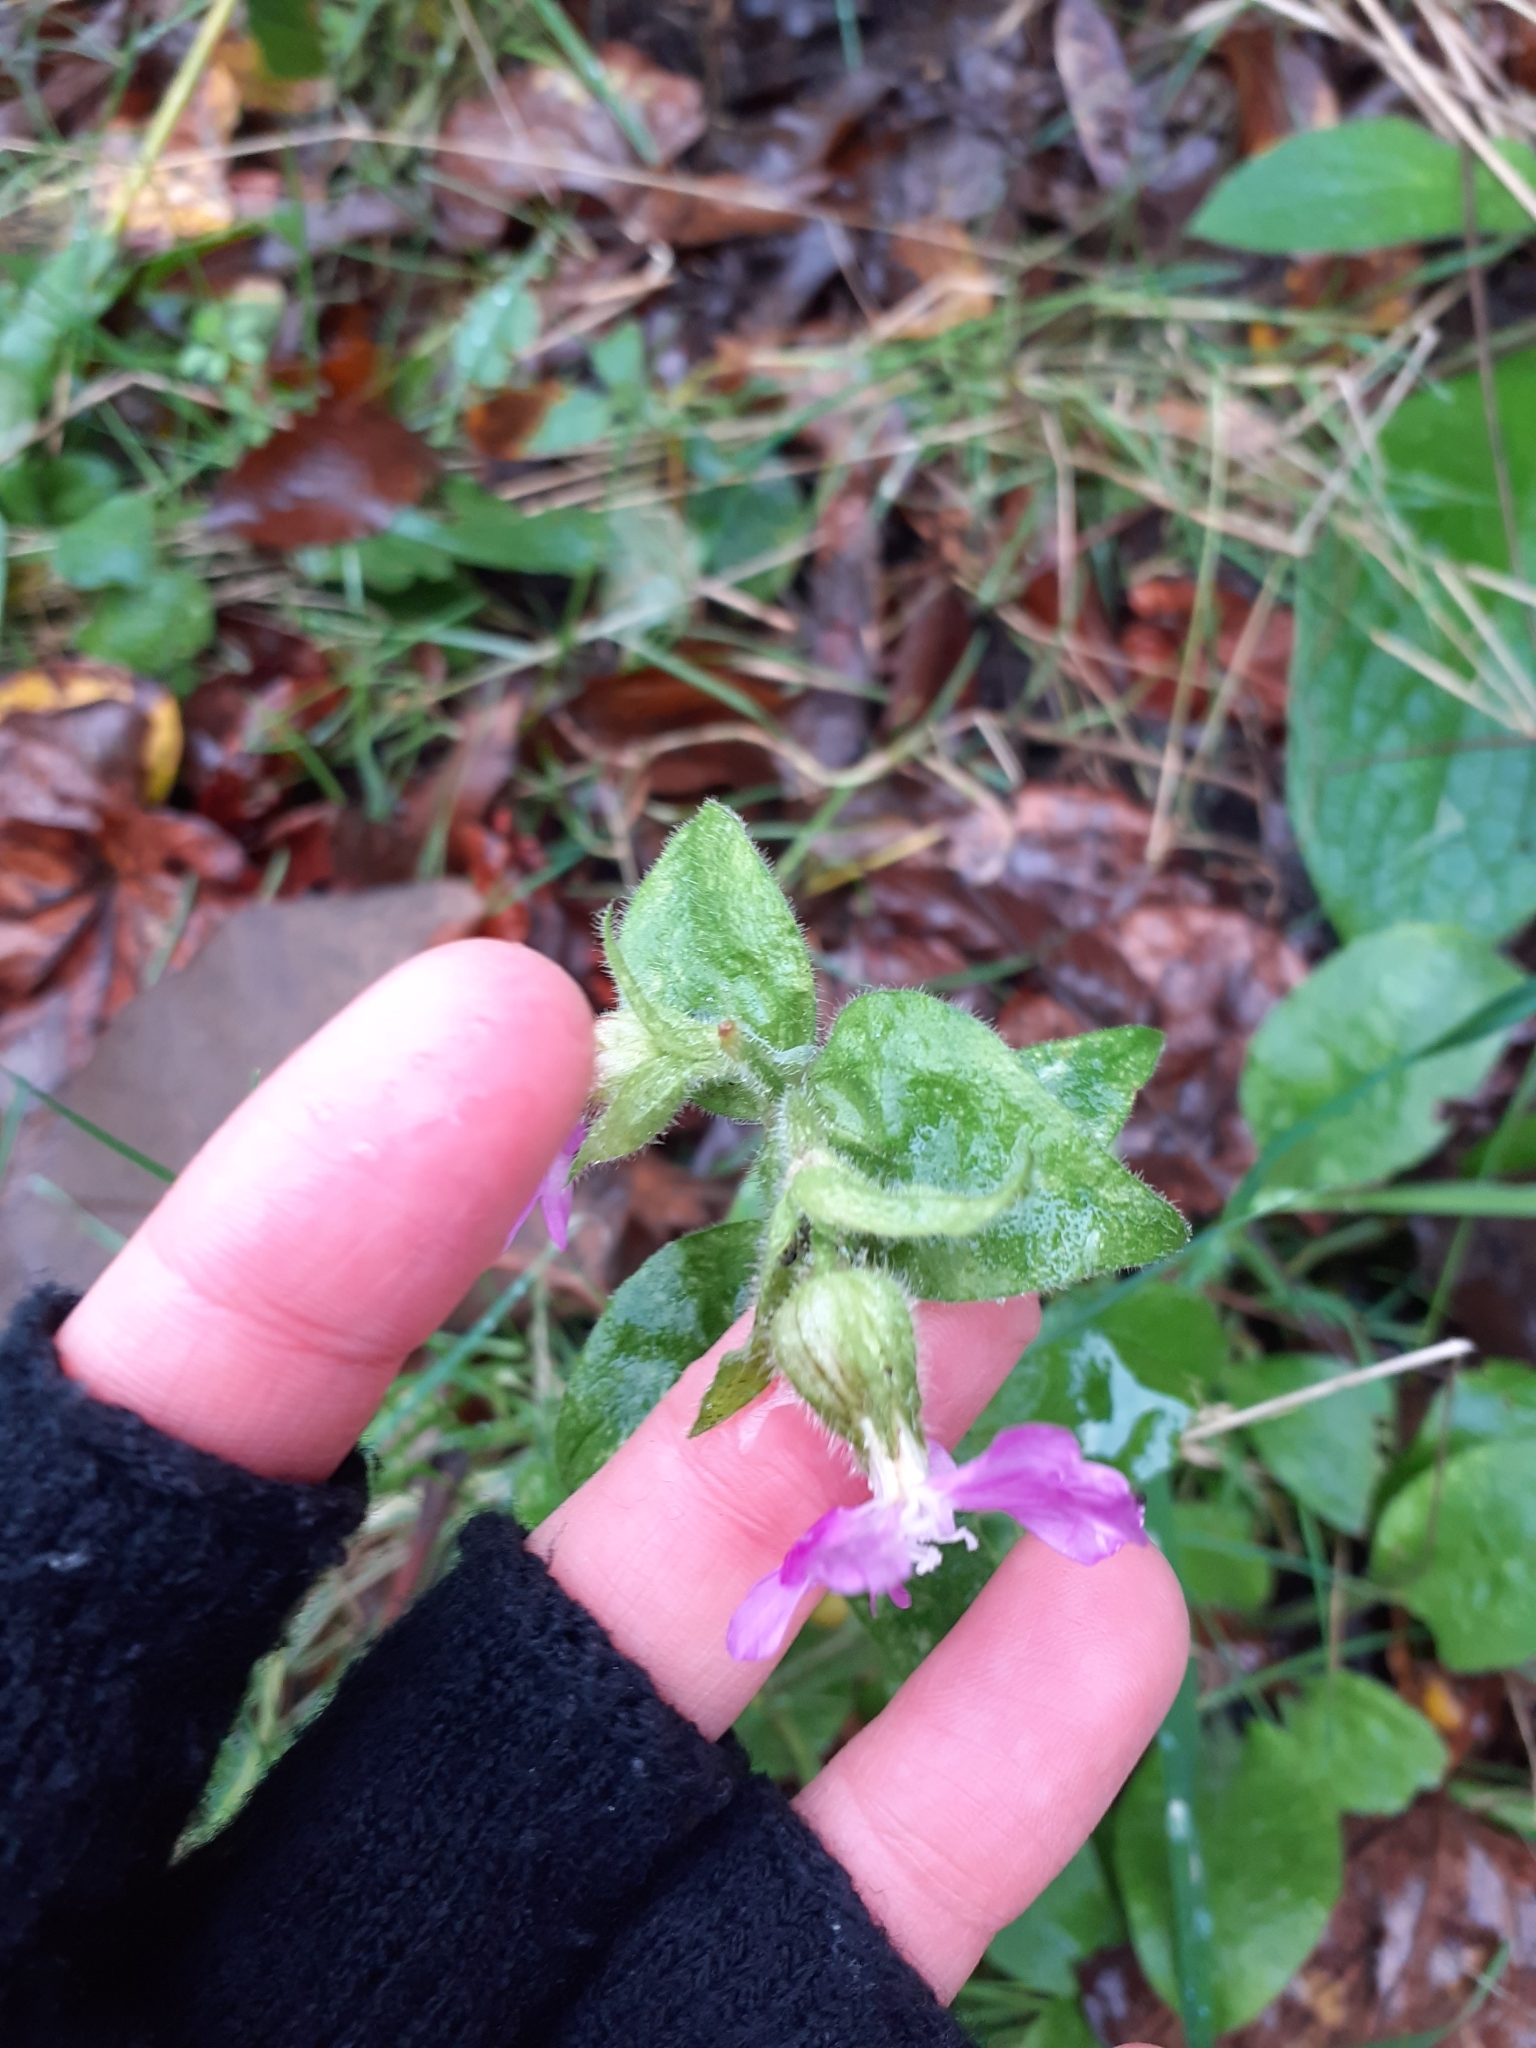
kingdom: Plantae
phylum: Tracheophyta
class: Magnoliopsida
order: Caryophyllales
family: Caryophyllaceae
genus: Silene
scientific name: Silene dioica
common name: Red campion
